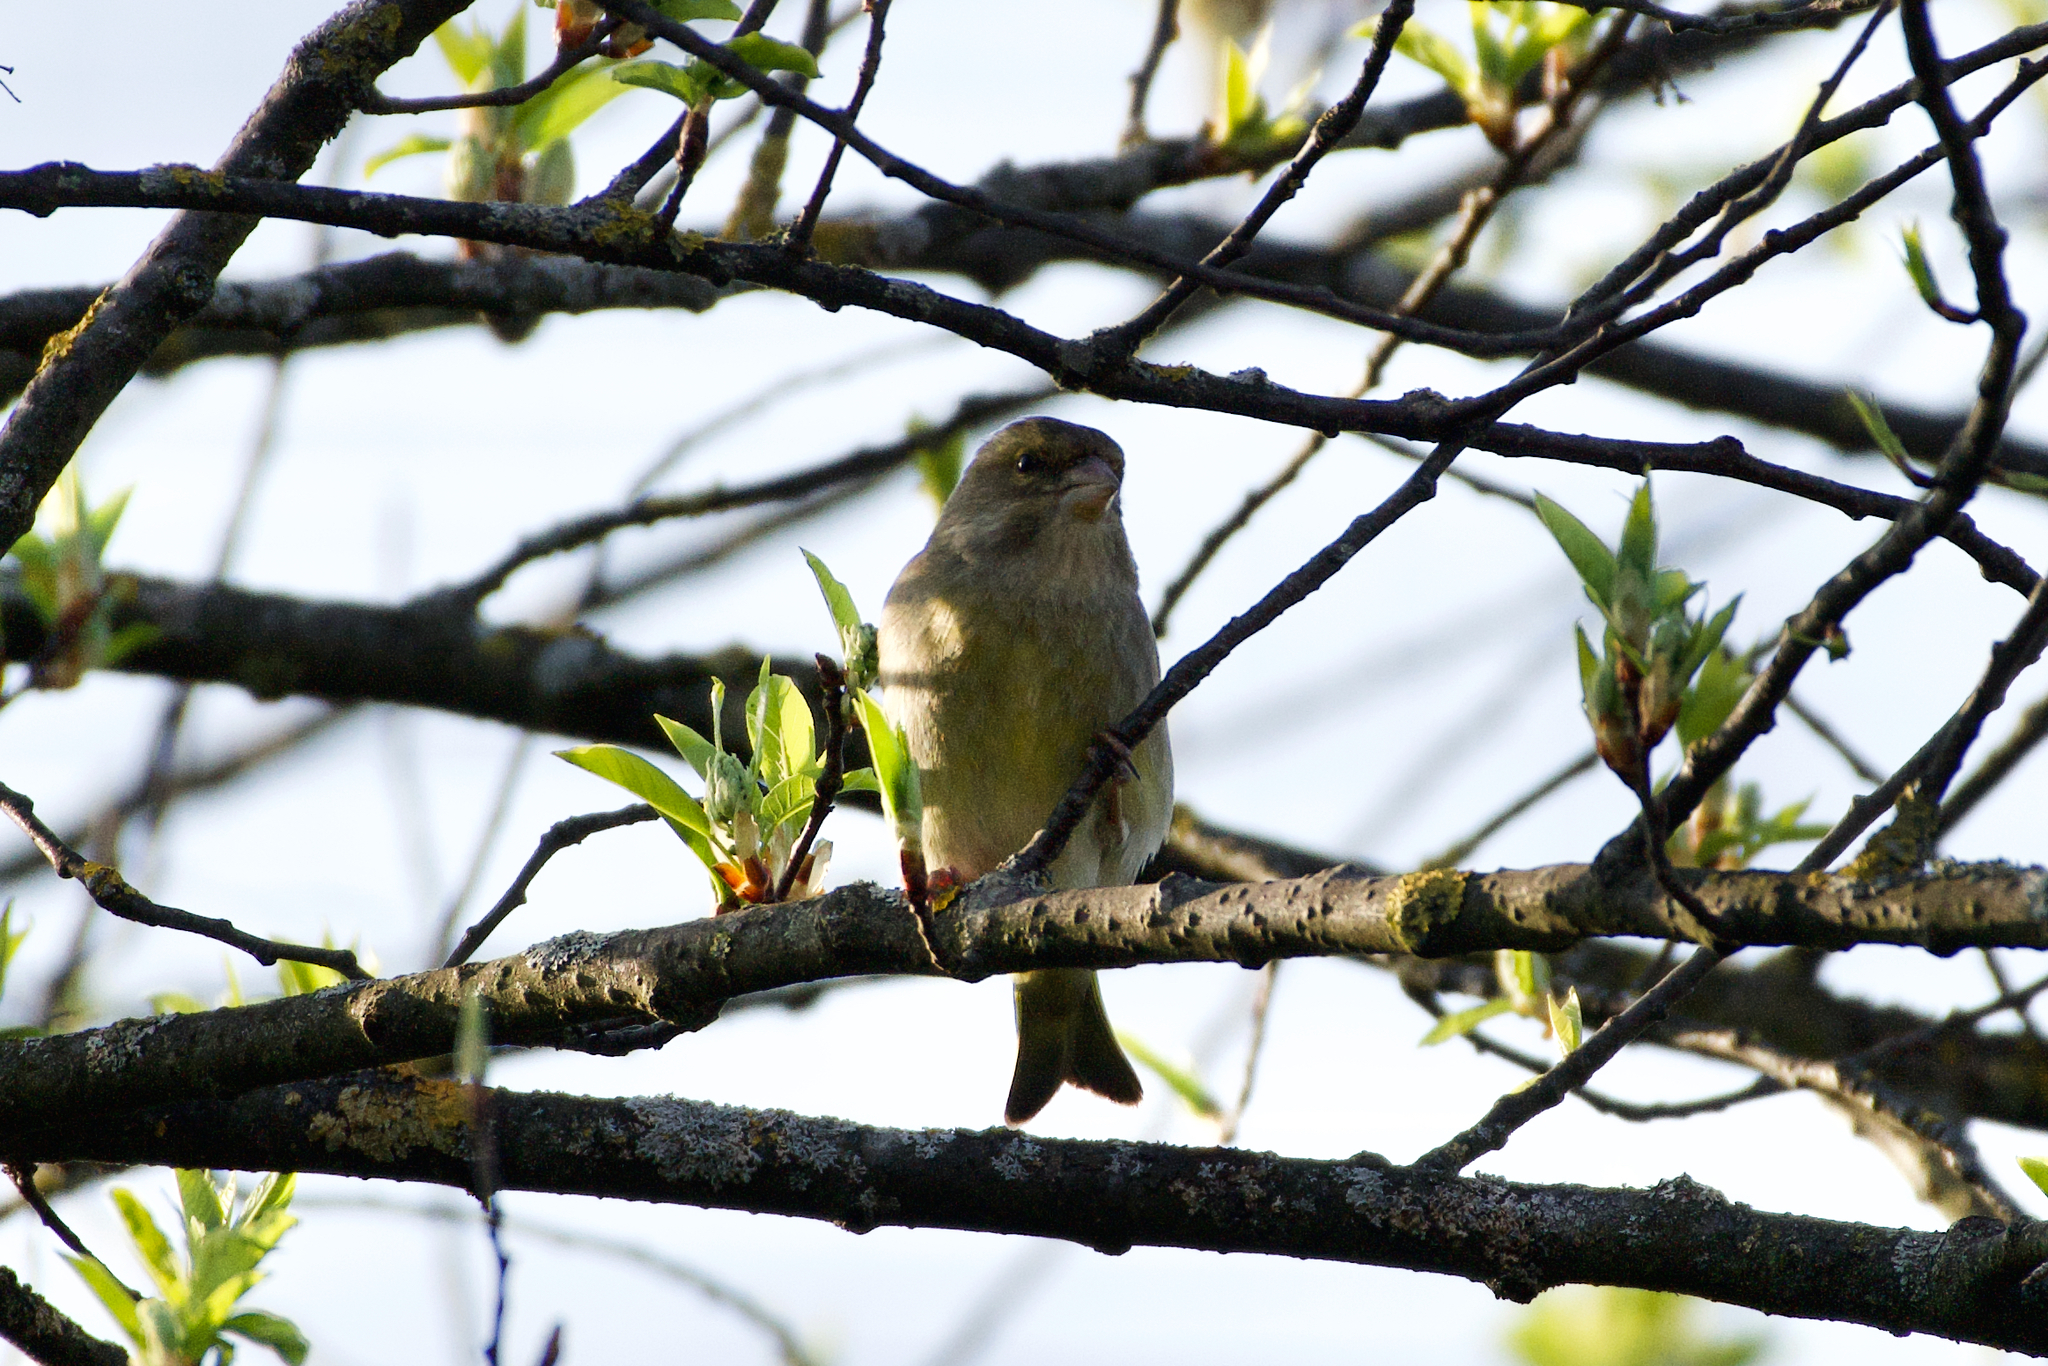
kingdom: Plantae
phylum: Tracheophyta
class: Liliopsida
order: Poales
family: Poaceae
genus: Chloris
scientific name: Chloris chloris
